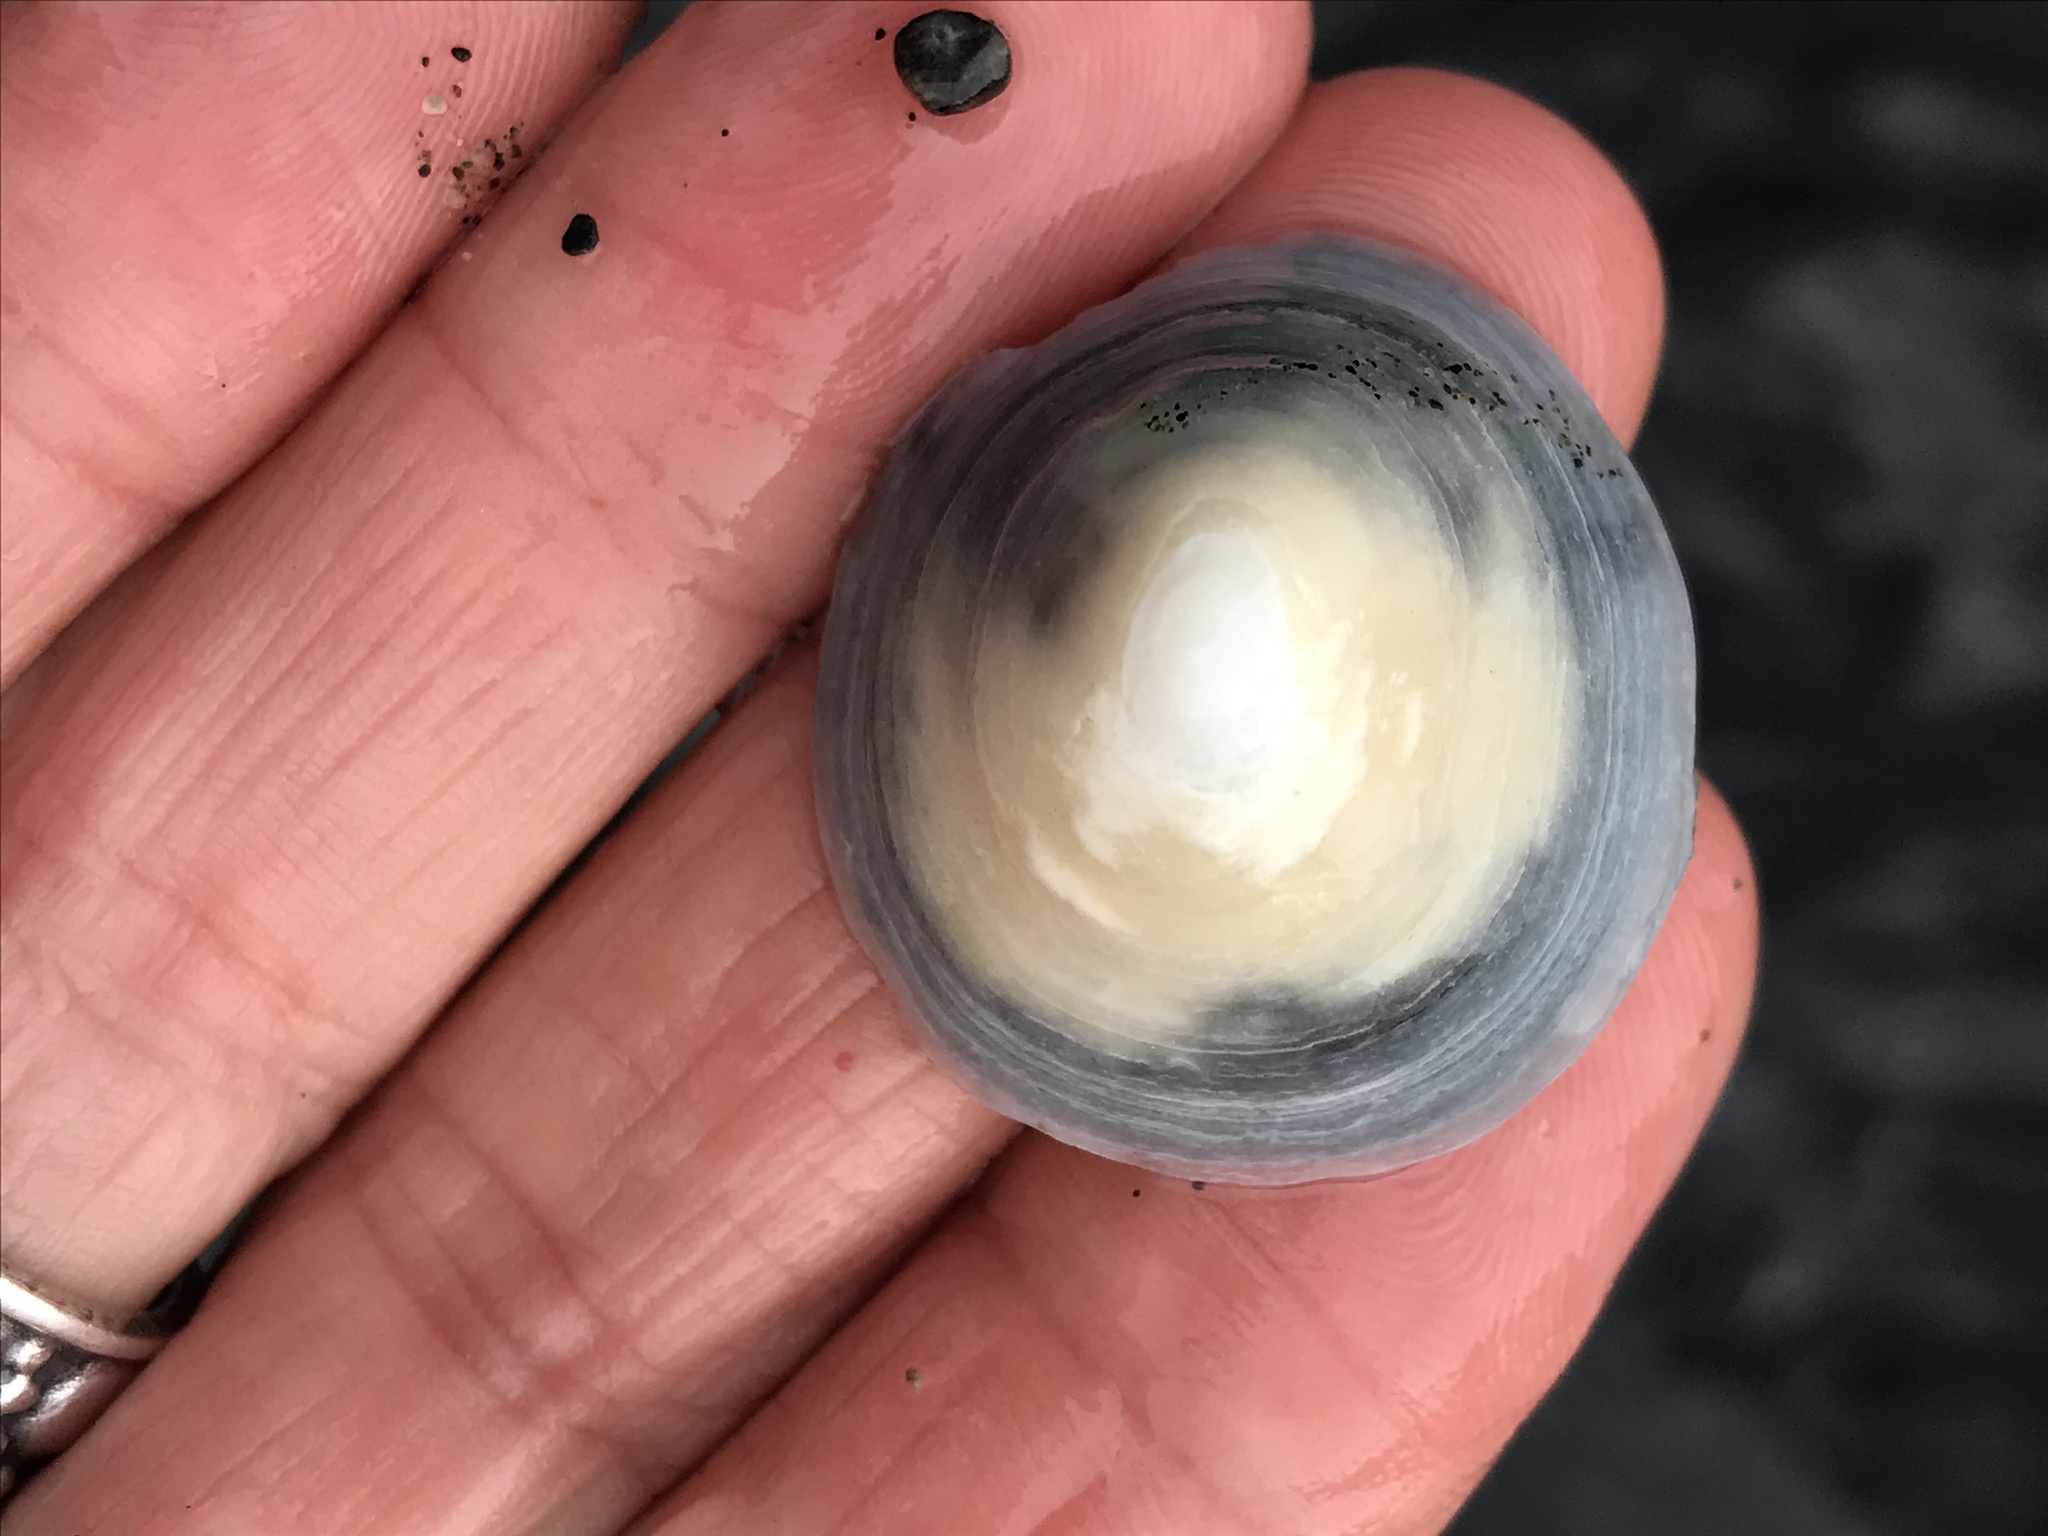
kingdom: Animalia
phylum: Mollusca
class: Gastropoda
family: Acmaeidae
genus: Acmaea
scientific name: Acmaea mitra
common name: Pacific white cap limpet
